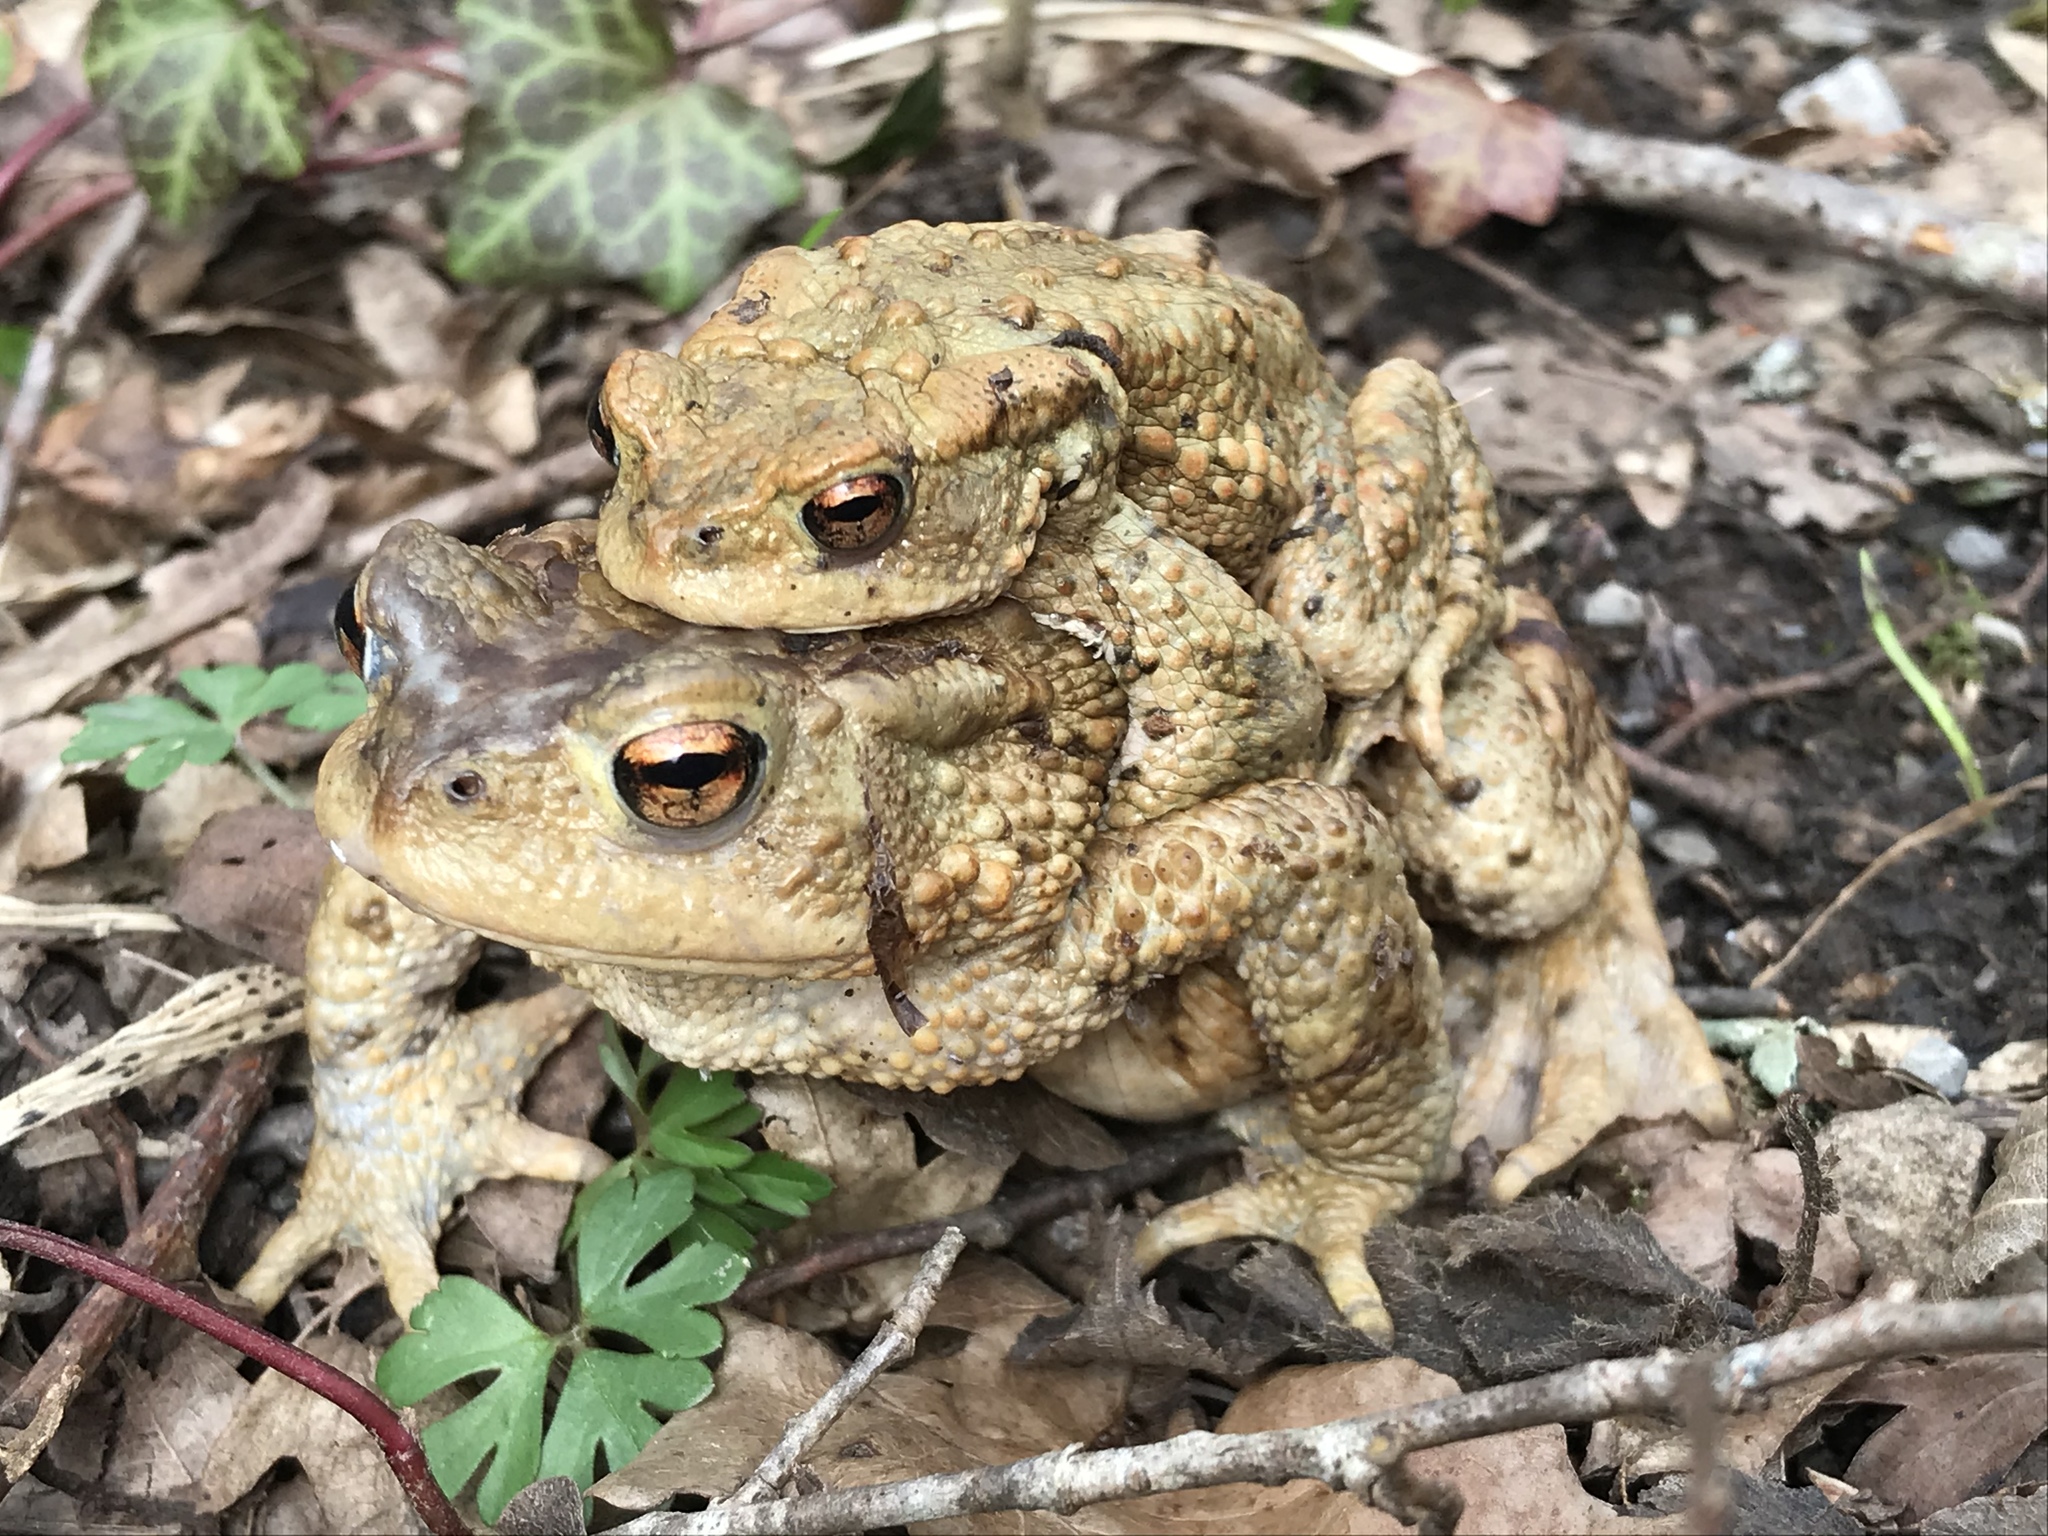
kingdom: Animalia
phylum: Chordata
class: Amphibia
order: Anura
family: Bufonidae
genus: Bufo
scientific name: Bufo bufo
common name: Common toad
